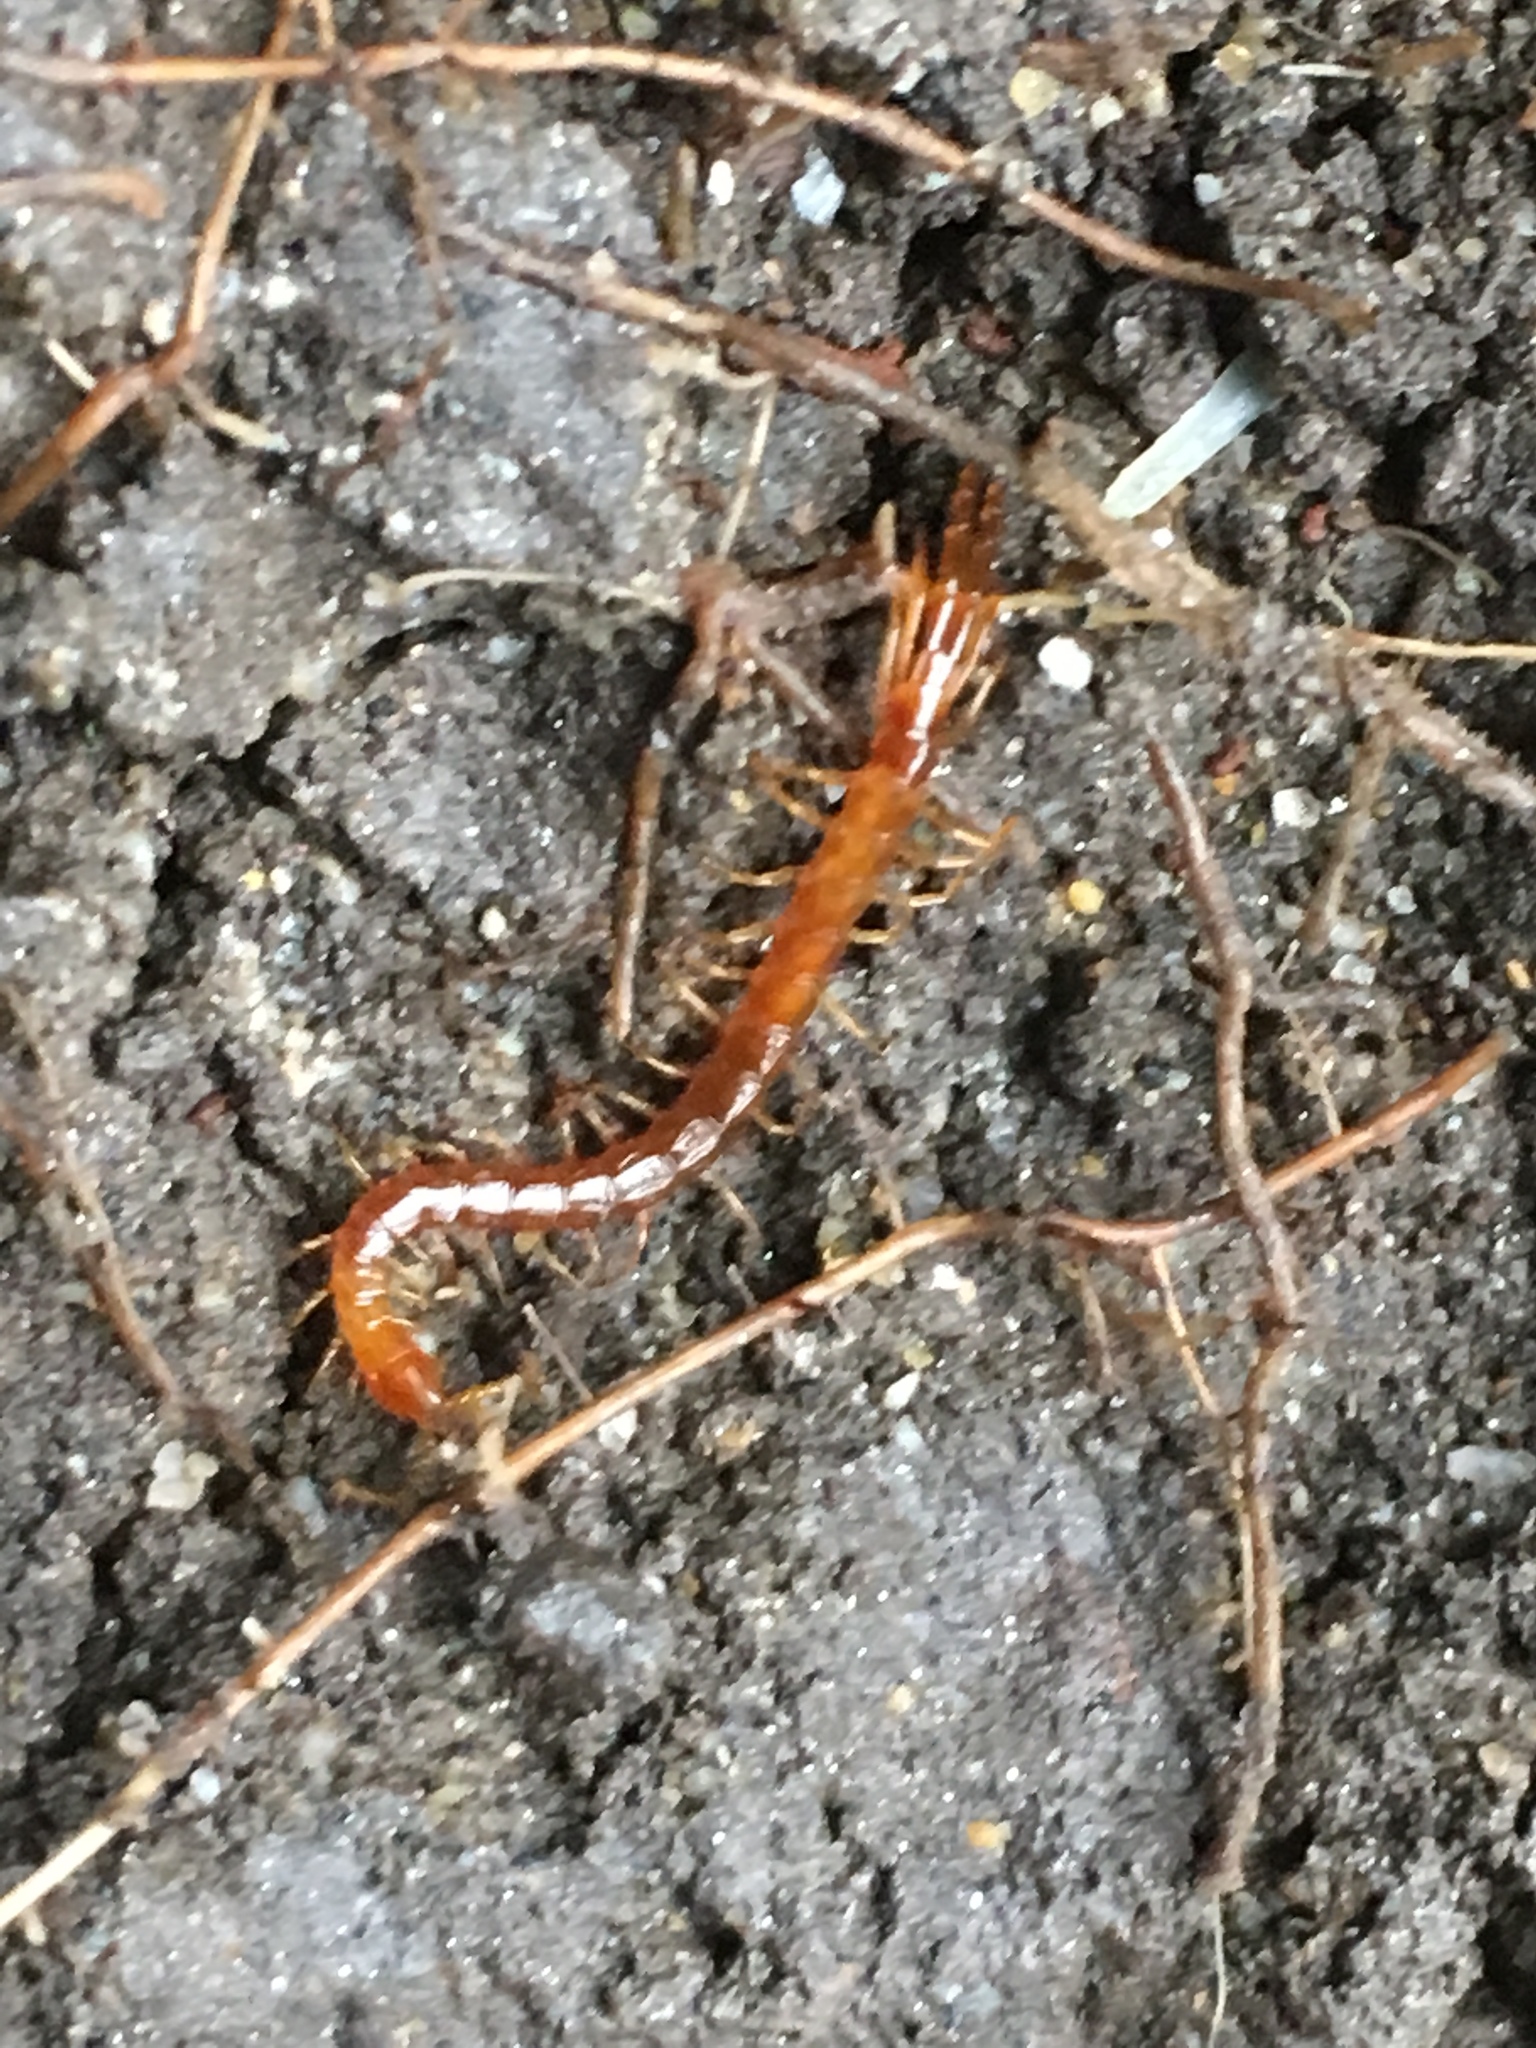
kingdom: Animalia
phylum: Arthropoda
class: Chilopoda
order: Scolopendromorpha
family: Cryptopidae
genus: Cryptops
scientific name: Cryptops hortensis
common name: Centipede
